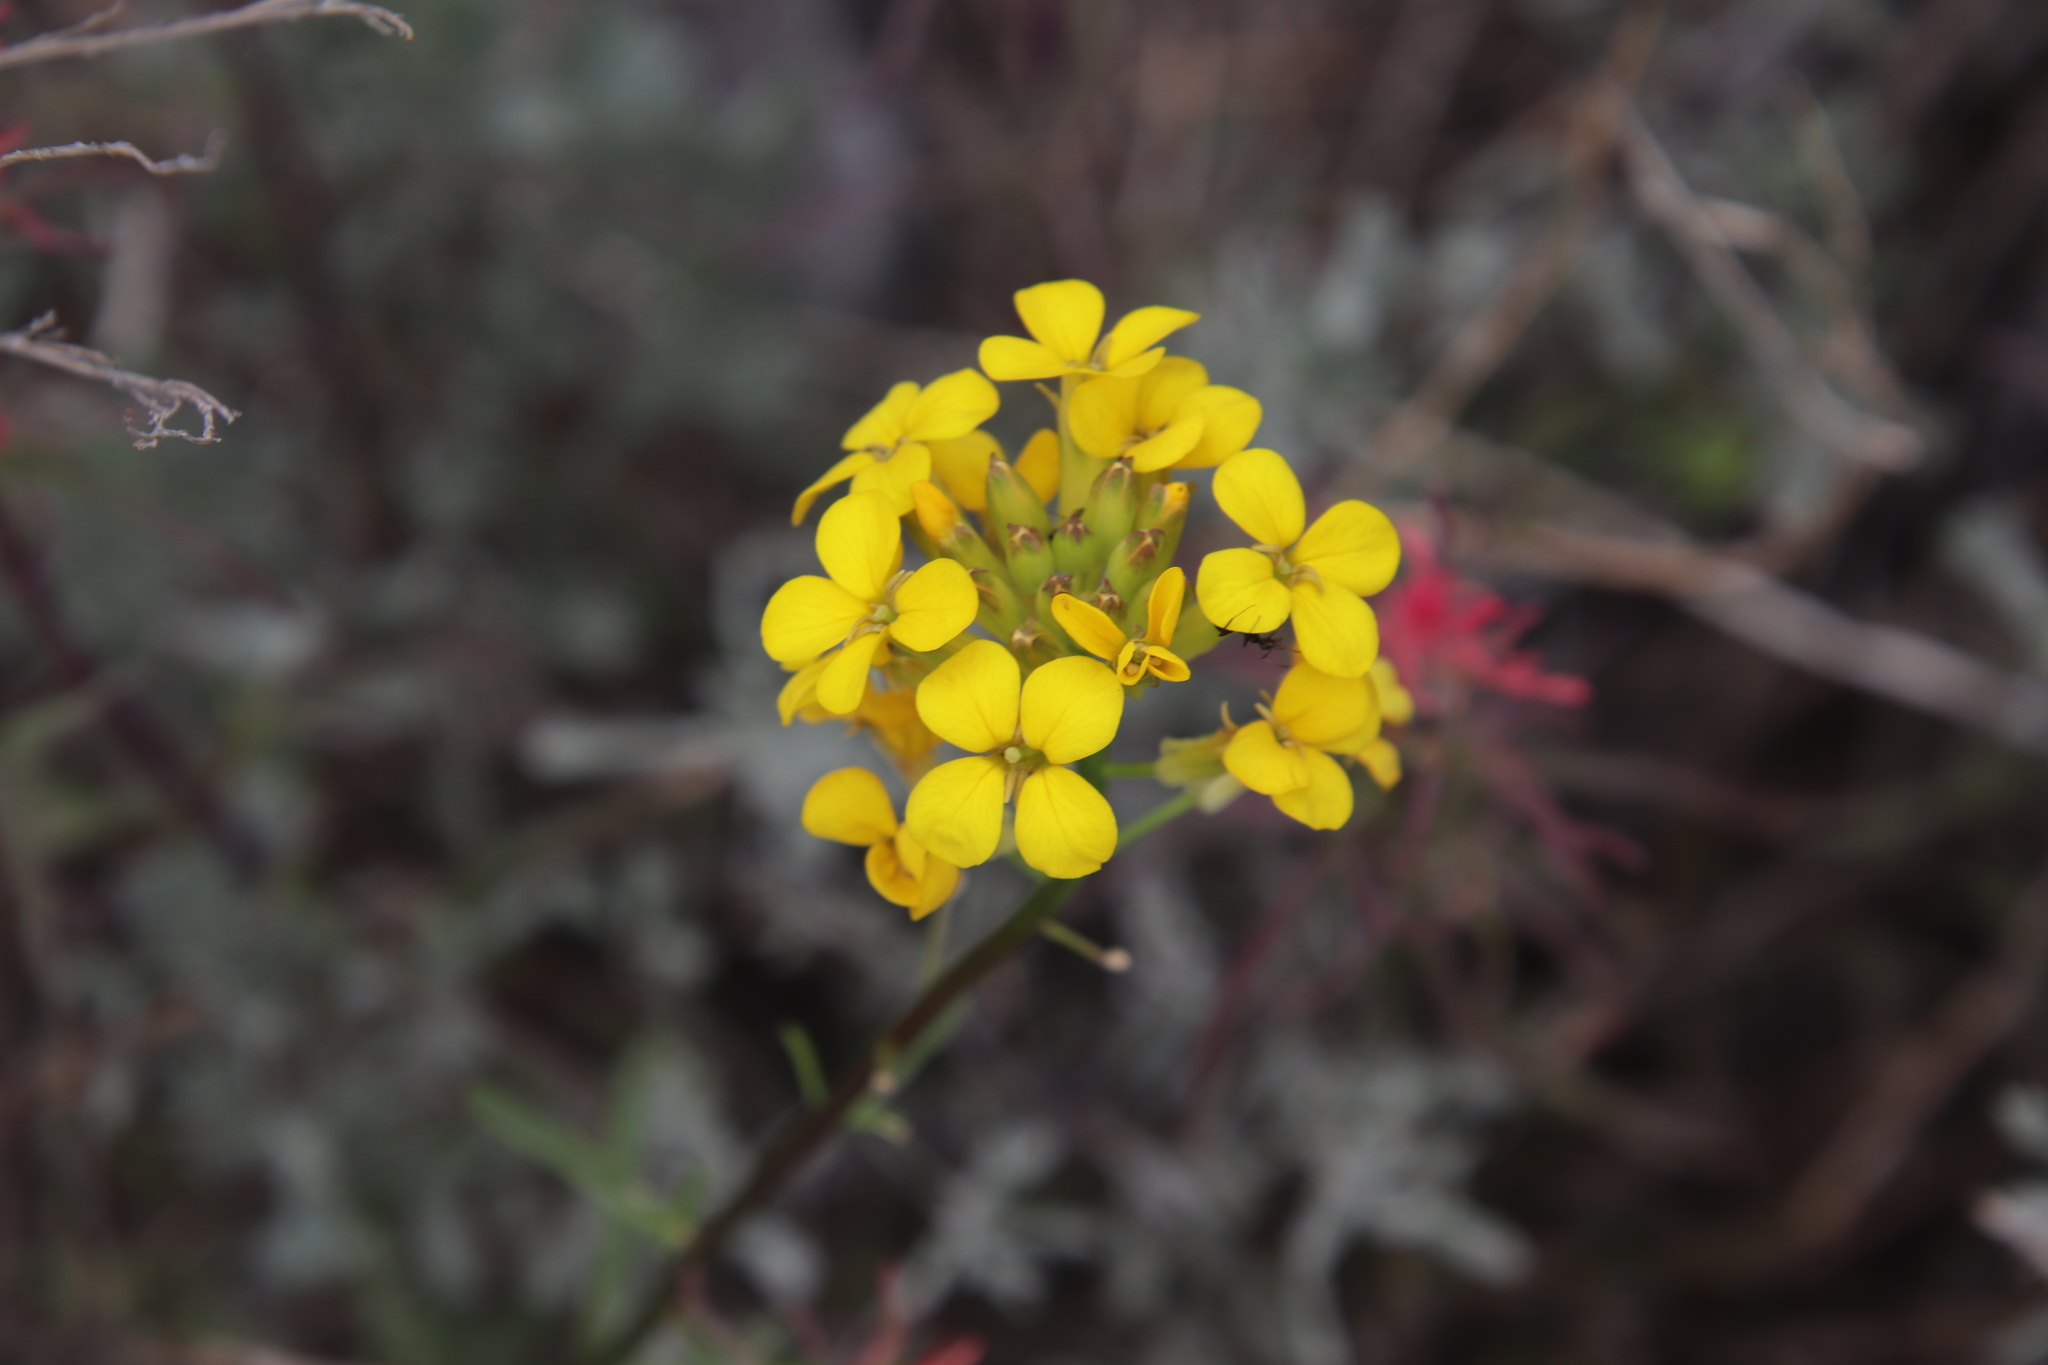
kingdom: Plantae
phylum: Tracheophyta
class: Magnoliopsida
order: Brassicales
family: Brassicaceae
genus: Erysimum
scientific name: Erysimum capitatum
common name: Western wallflower
